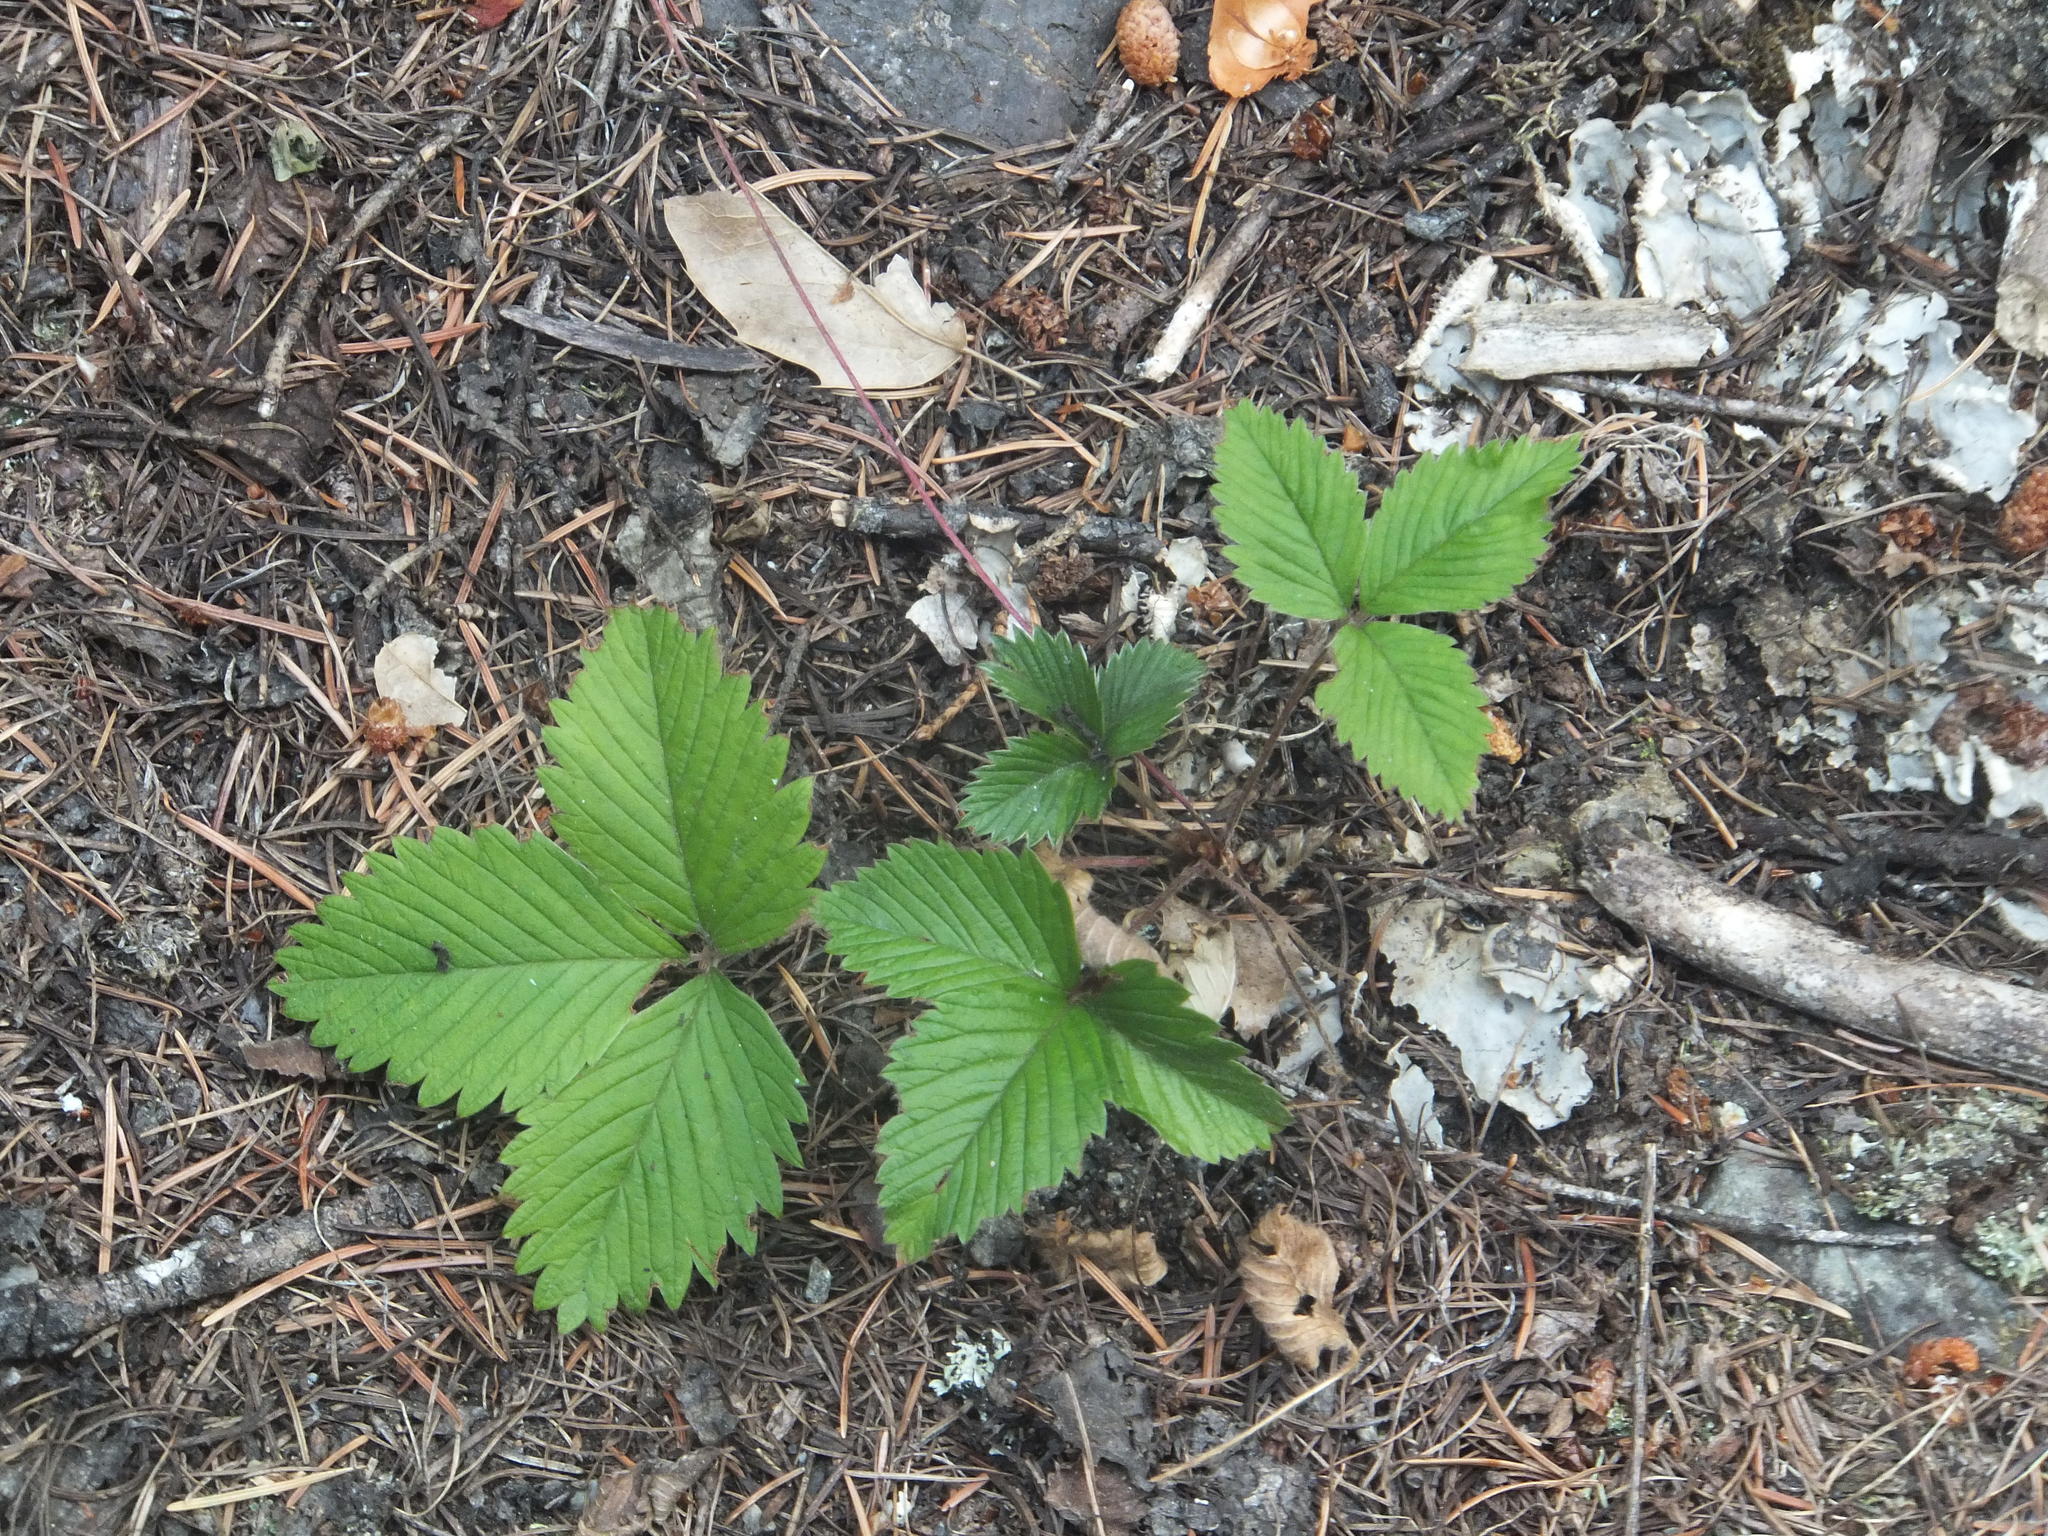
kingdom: Plantae
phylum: Tracheophyta
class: Magnoliopsida
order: Rosales
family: Rosaceae
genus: Fragaria
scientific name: Fragaria vesca
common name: Wild strawberry
